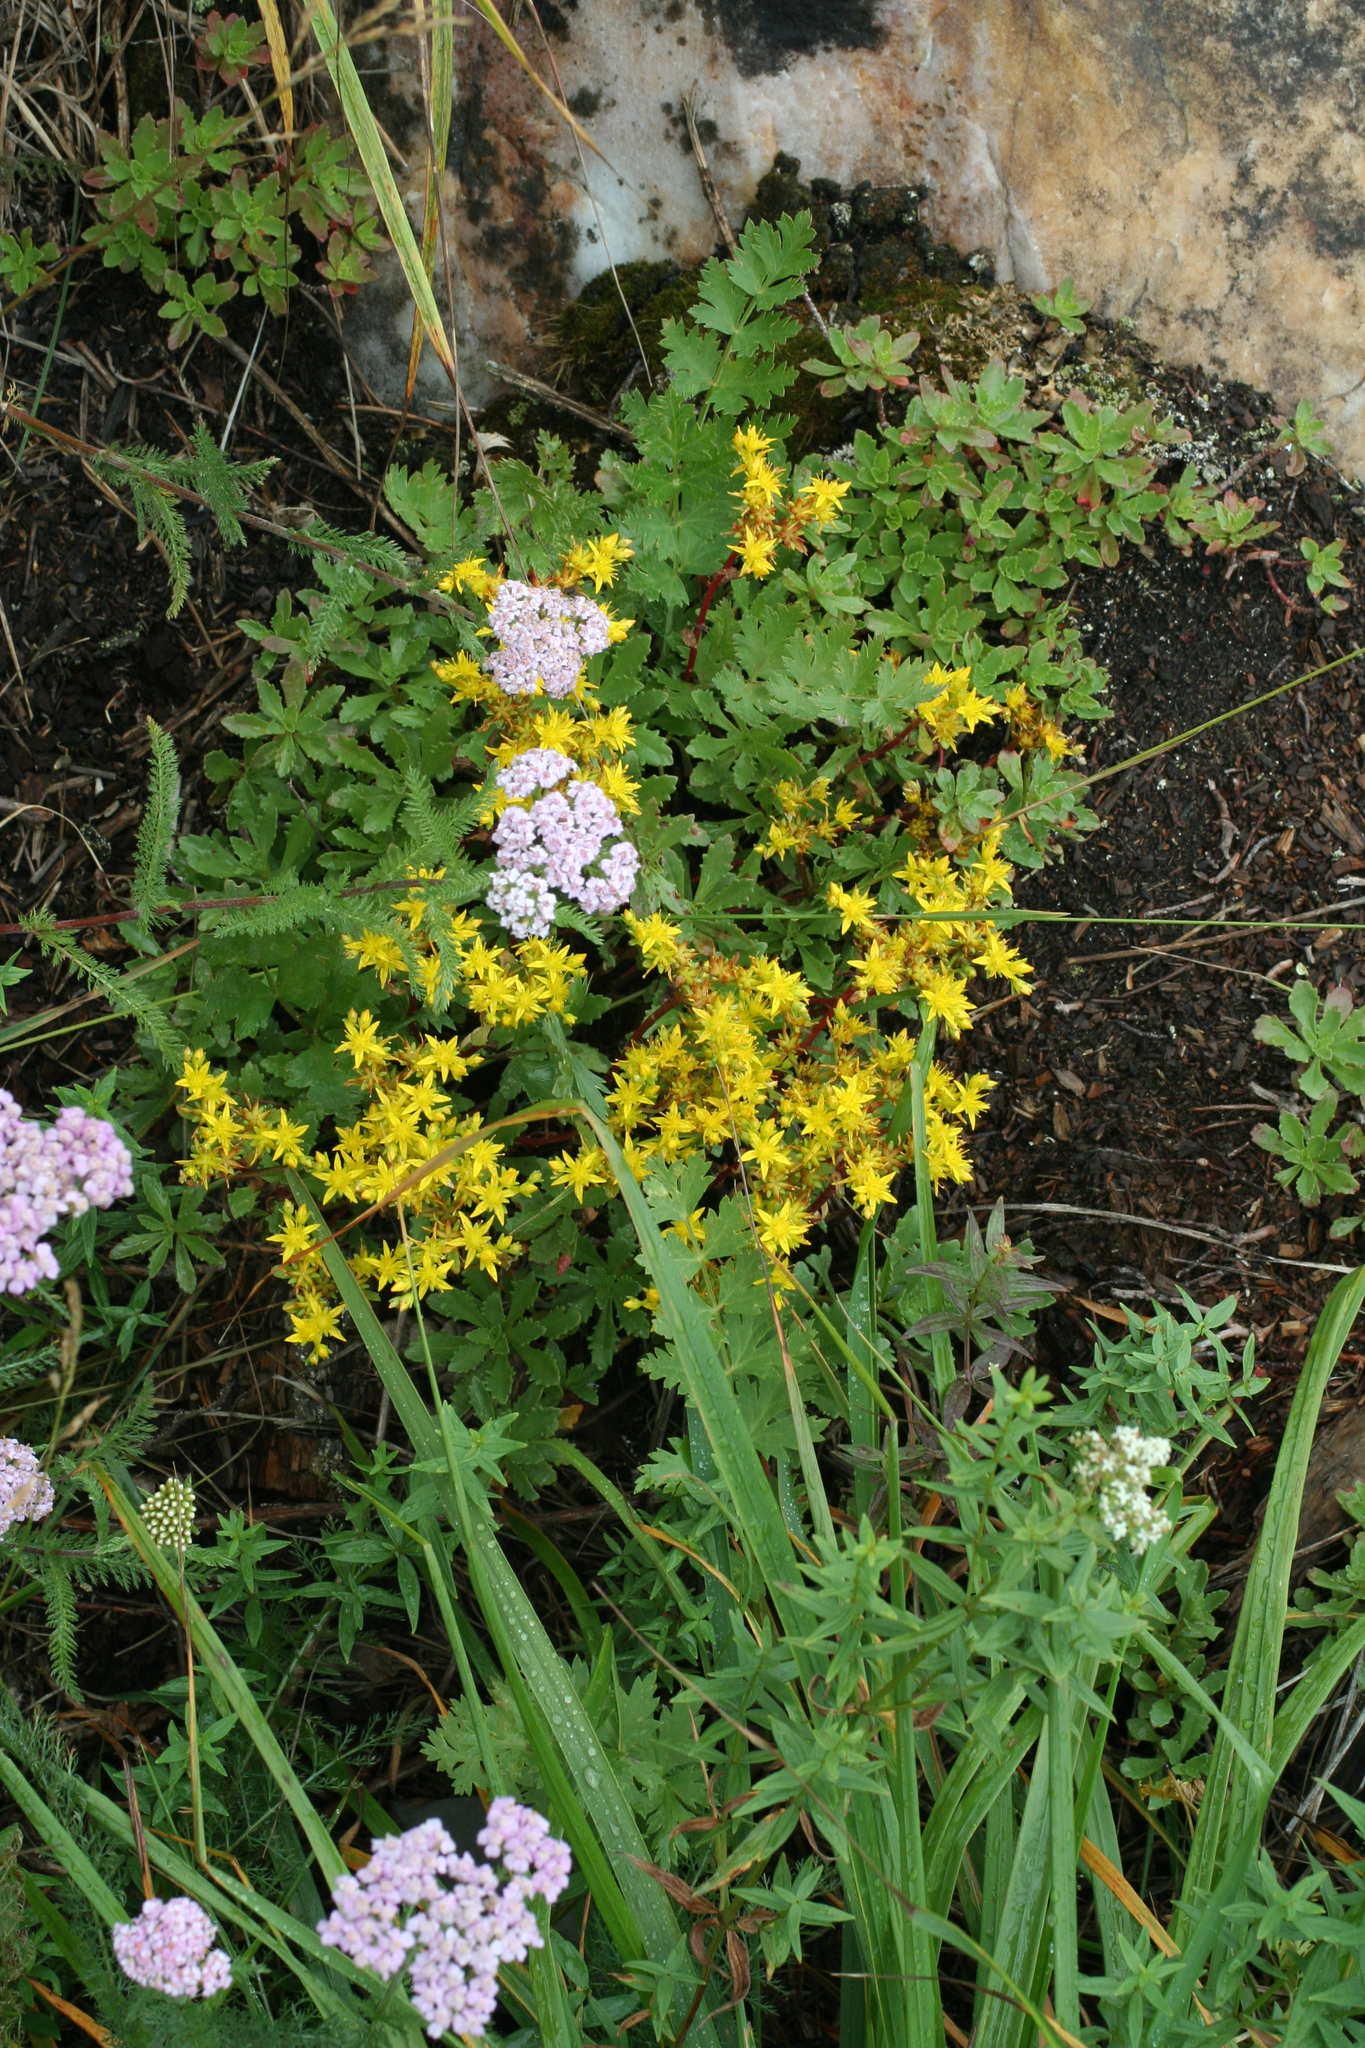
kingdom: Plantae
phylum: Tracheophyta
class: Magnoliopsida
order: Saxifragales
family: Crassulaceae
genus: Phedimus
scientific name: Phedimus hybridus
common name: Hybrid stonecrop
